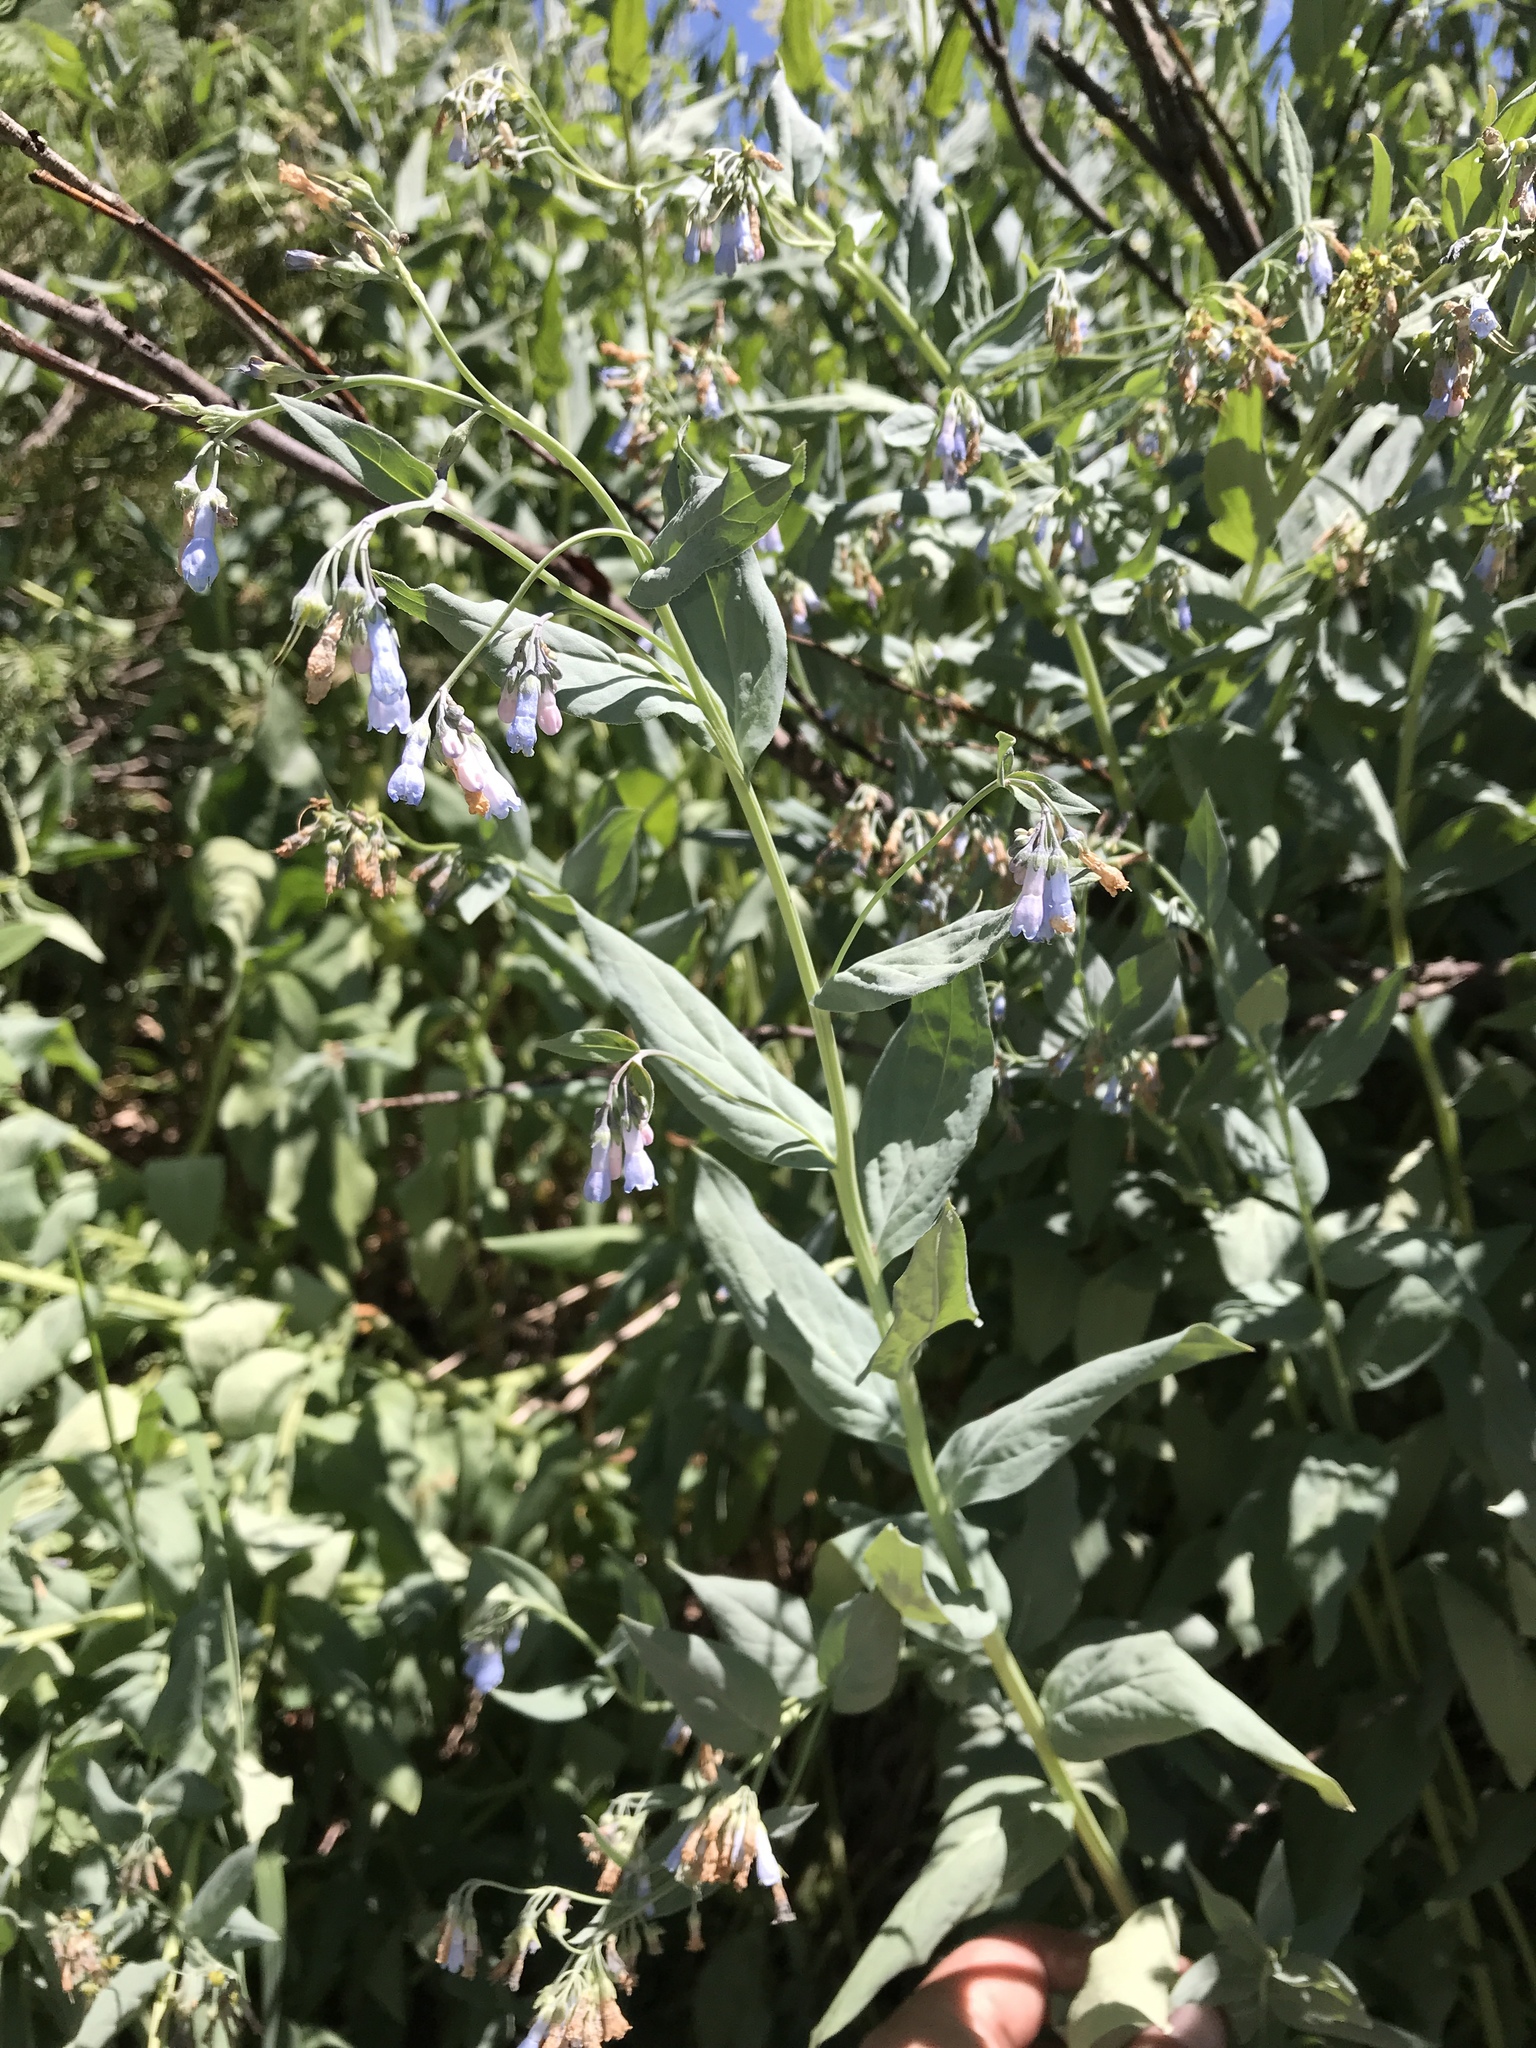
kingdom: Plantae
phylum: Tracheophyta
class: Magnoliopsida
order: Boraginales
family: Boraginaceae
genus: Mertensia
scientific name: Mertensia ciliata
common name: Tall chiming-bells
